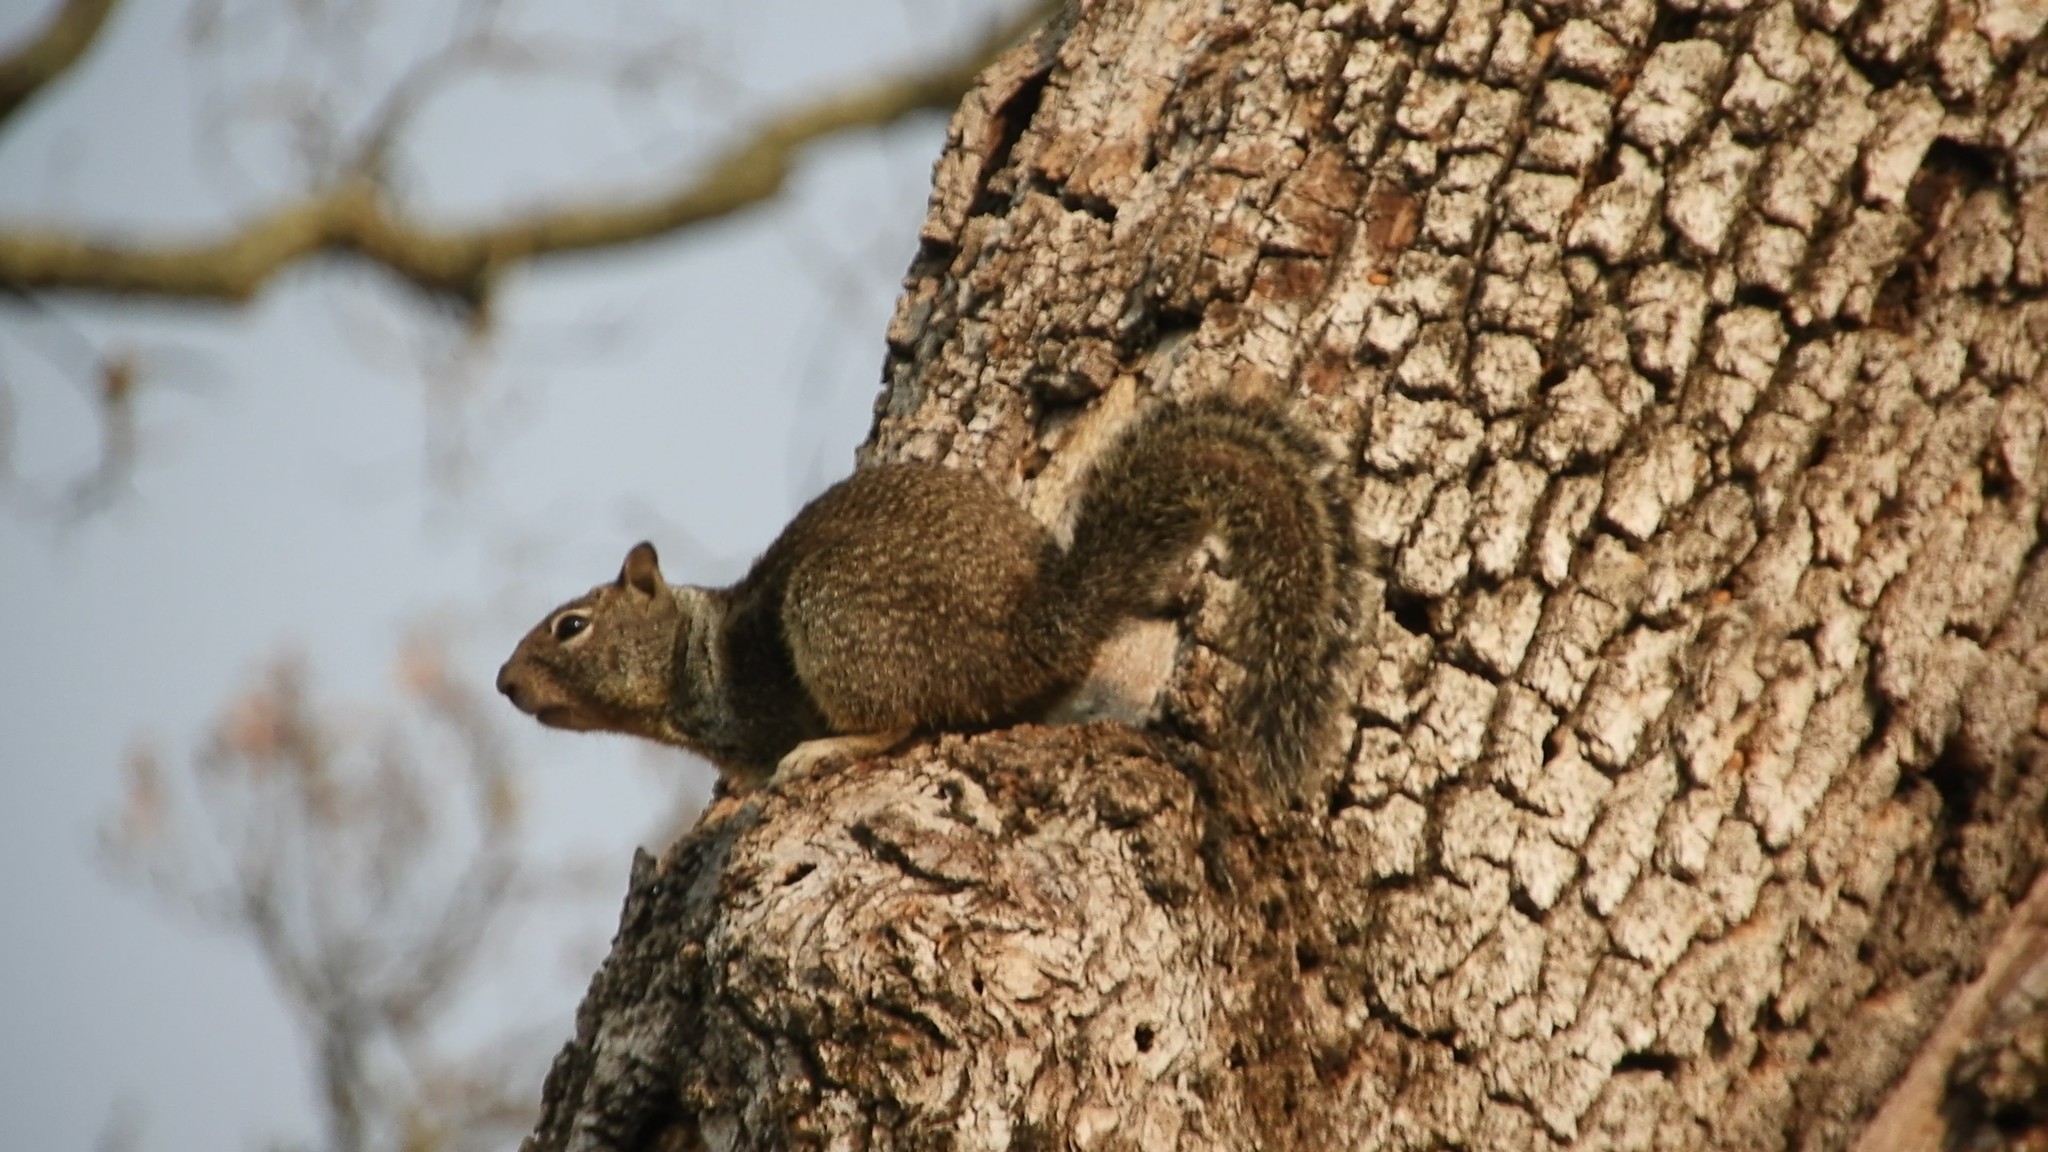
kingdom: Animalia
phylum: Chordata
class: Mammalia
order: Rodentia
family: Sciuridae
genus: Otospermophilus
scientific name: Otospermophilus beecheyi
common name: California ground squirrel
